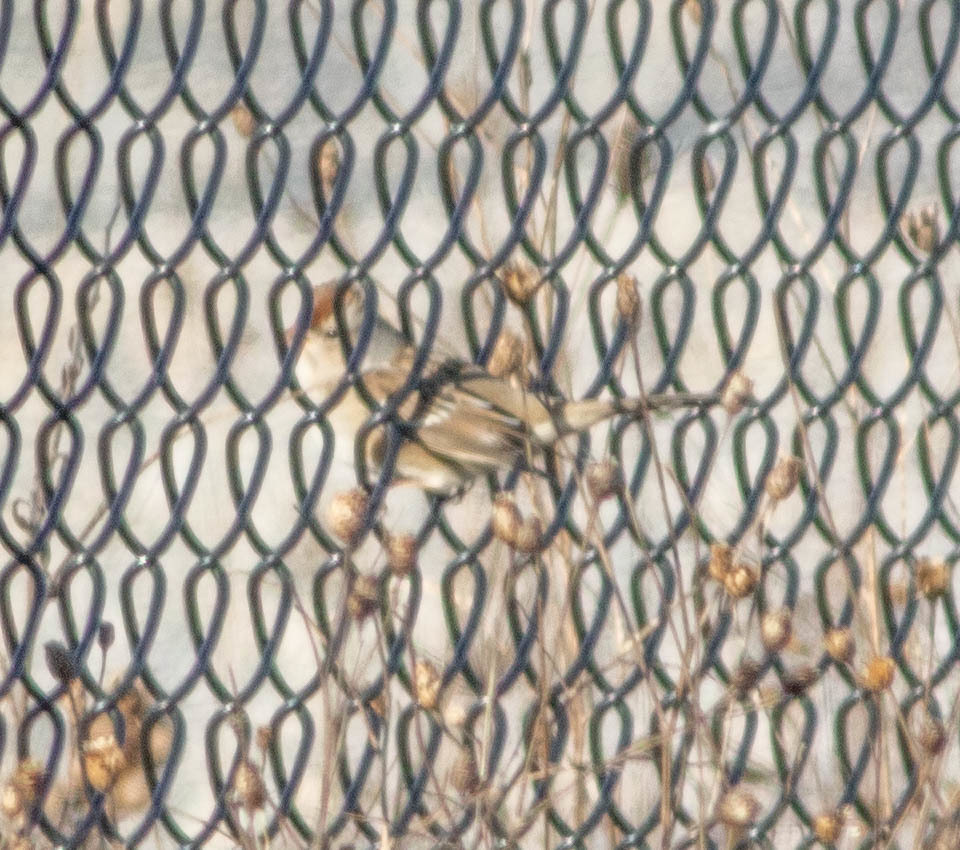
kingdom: Animalia
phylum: Chordata
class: Aves
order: Passeriformes
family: Passerellidae
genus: Zonotrichia
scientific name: Zonotrichia leucophrys
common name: White-crowned sparrow
